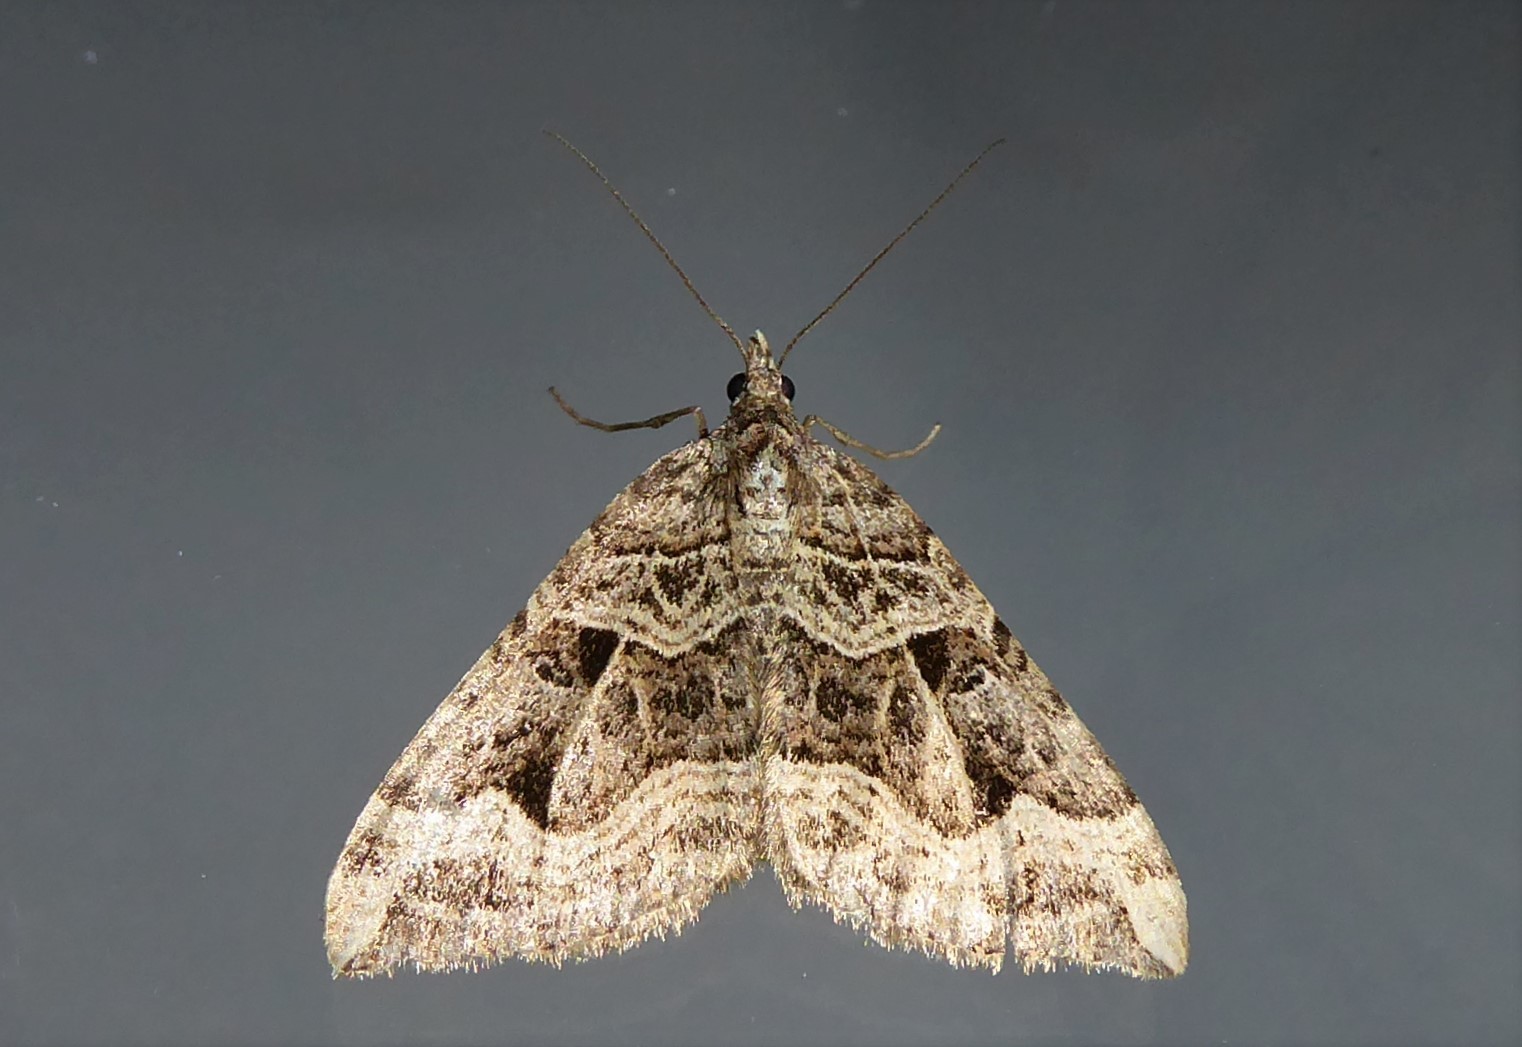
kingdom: Animalia
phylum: Arthropoda
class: Insecta
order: Lepidoptera
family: Geometridae
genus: Xanthorhoe
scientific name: Xanthorhoe semifissata
